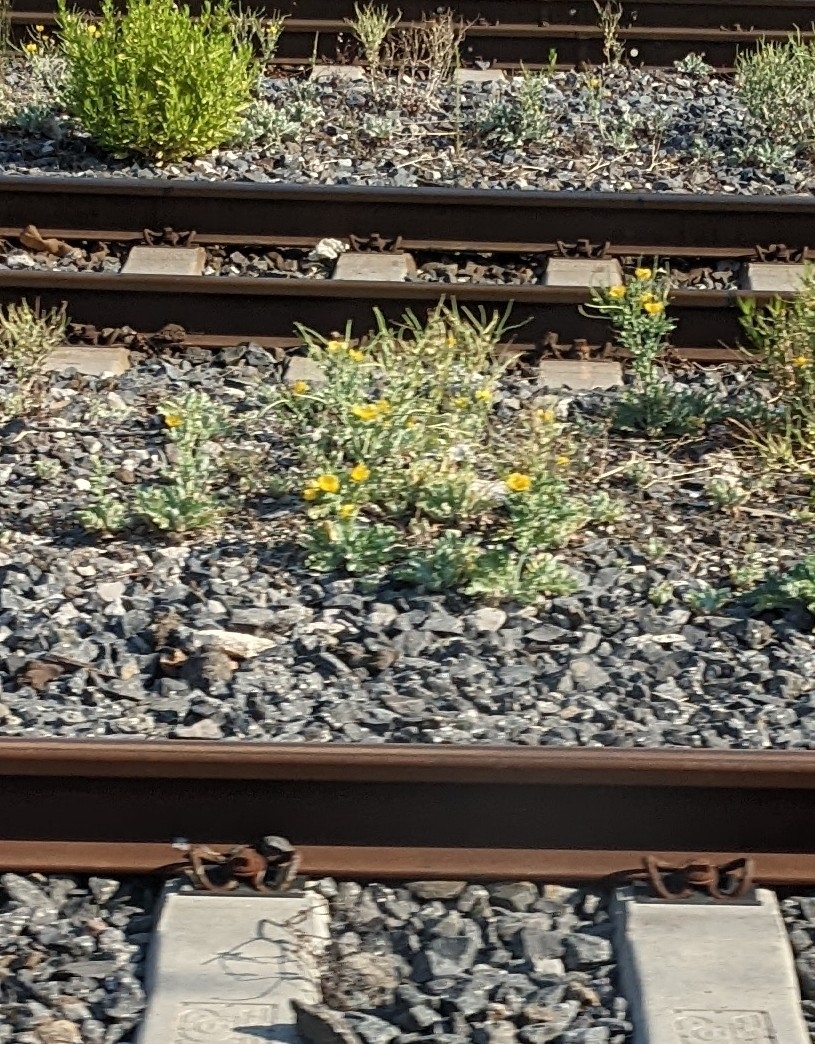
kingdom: Plantae
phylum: Tracheophyta
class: Magnoliopsida
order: Ranunculales
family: Papaveraceae
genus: Glaucium
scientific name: Glaucium flavum
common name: Yellow horned-poppy
